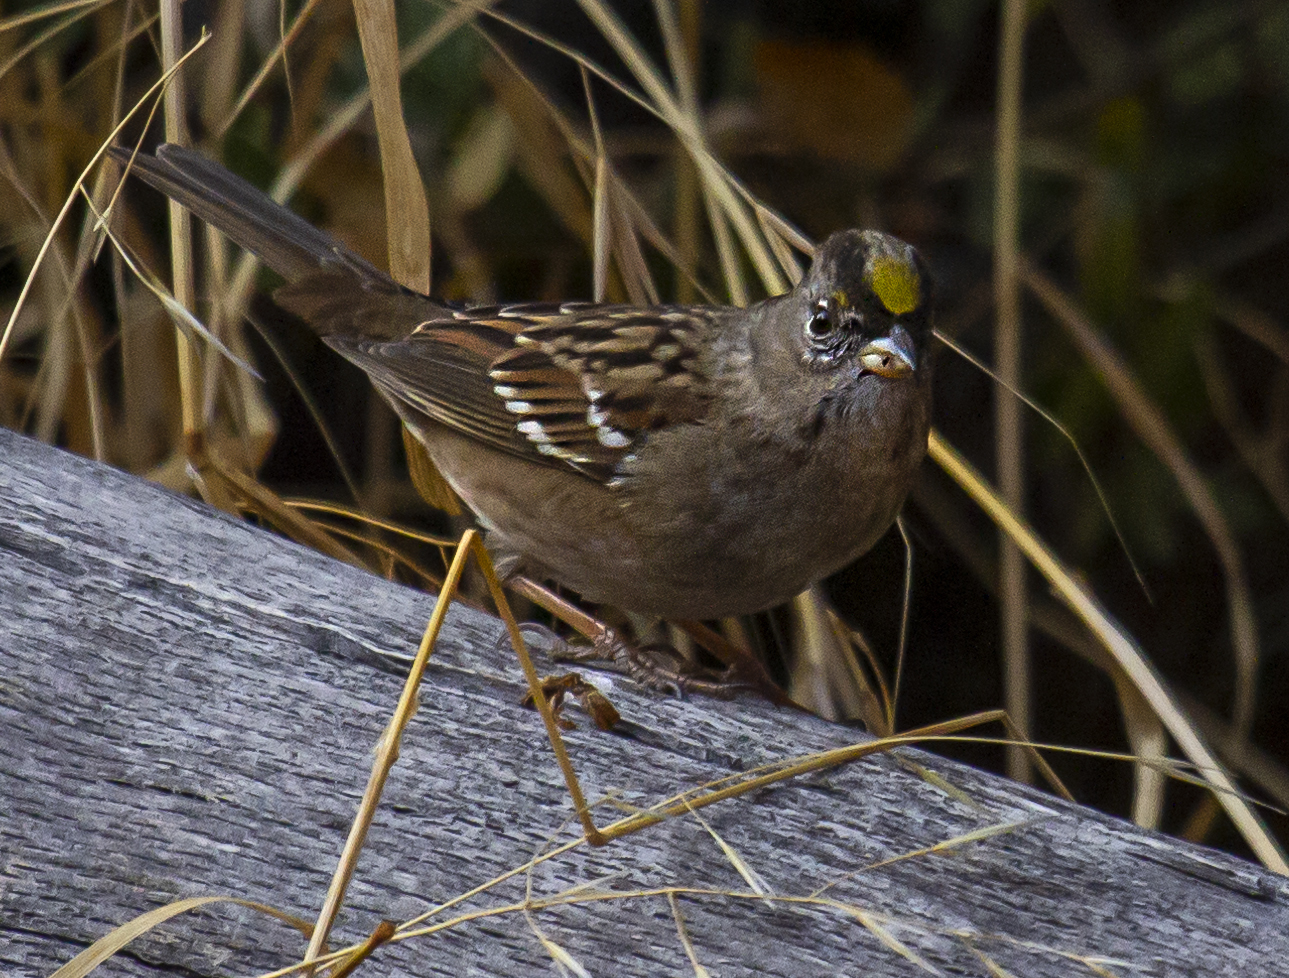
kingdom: Animalia
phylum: Chordata
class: Aves
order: Passeriformes
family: Passerellidae
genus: Zonotrichia
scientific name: Zonotrichia atricapilla
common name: Golden-crowned sparrow
